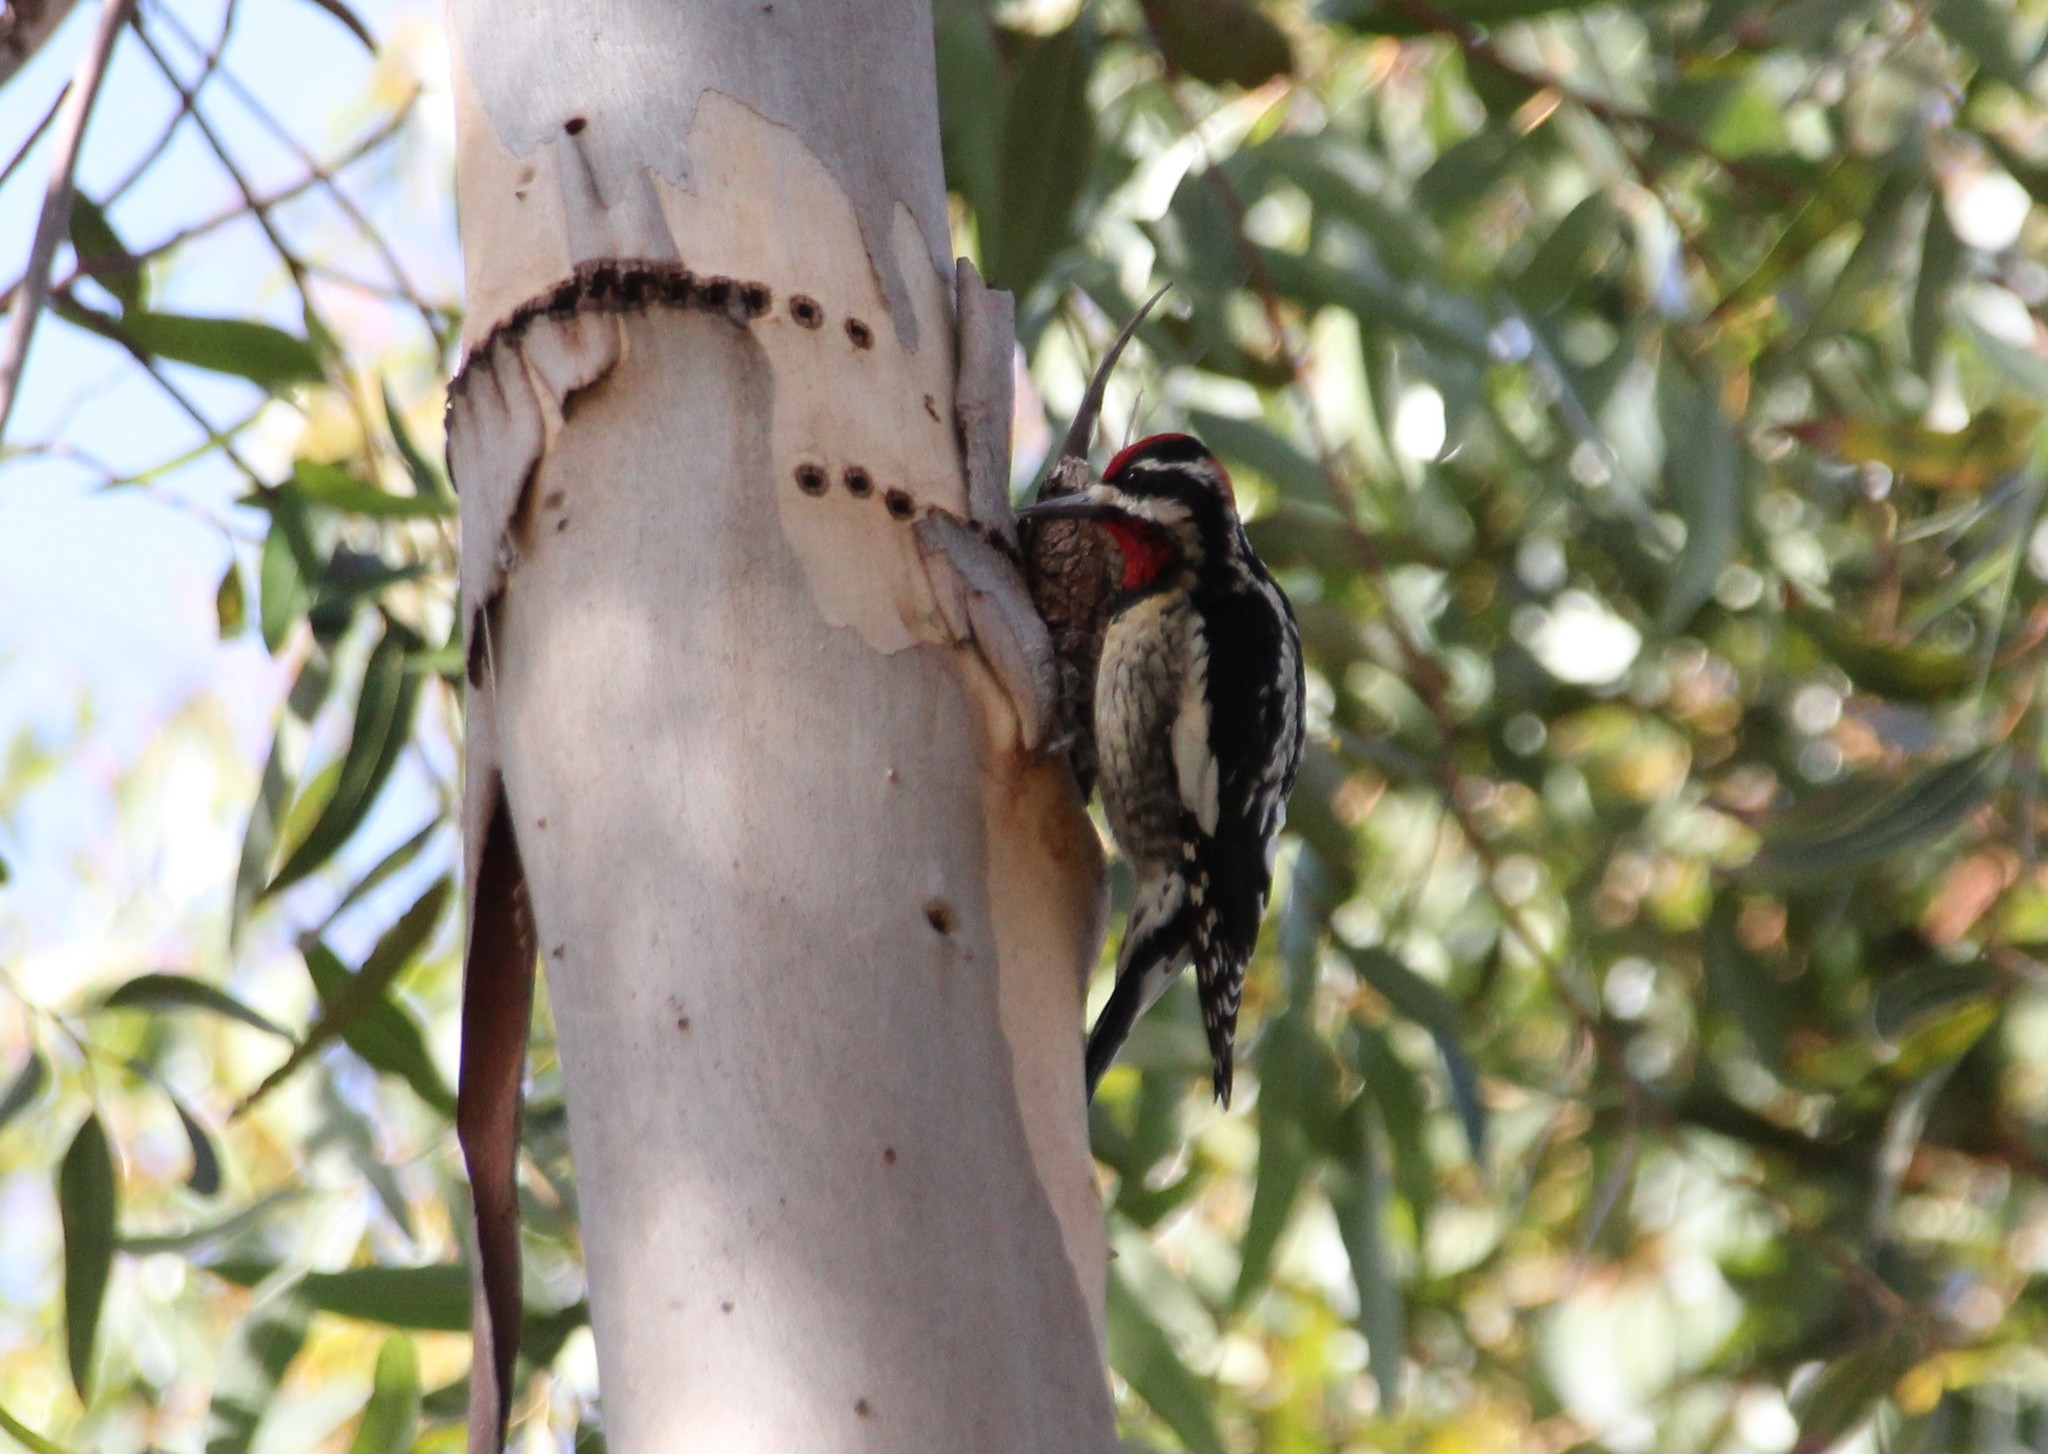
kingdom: Animalia
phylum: Chordata
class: Aves
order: Piciformes
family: Picidae
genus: Sphyrapicus
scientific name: Sphyrapicus nuchalis
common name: Red-naped sapsucker
